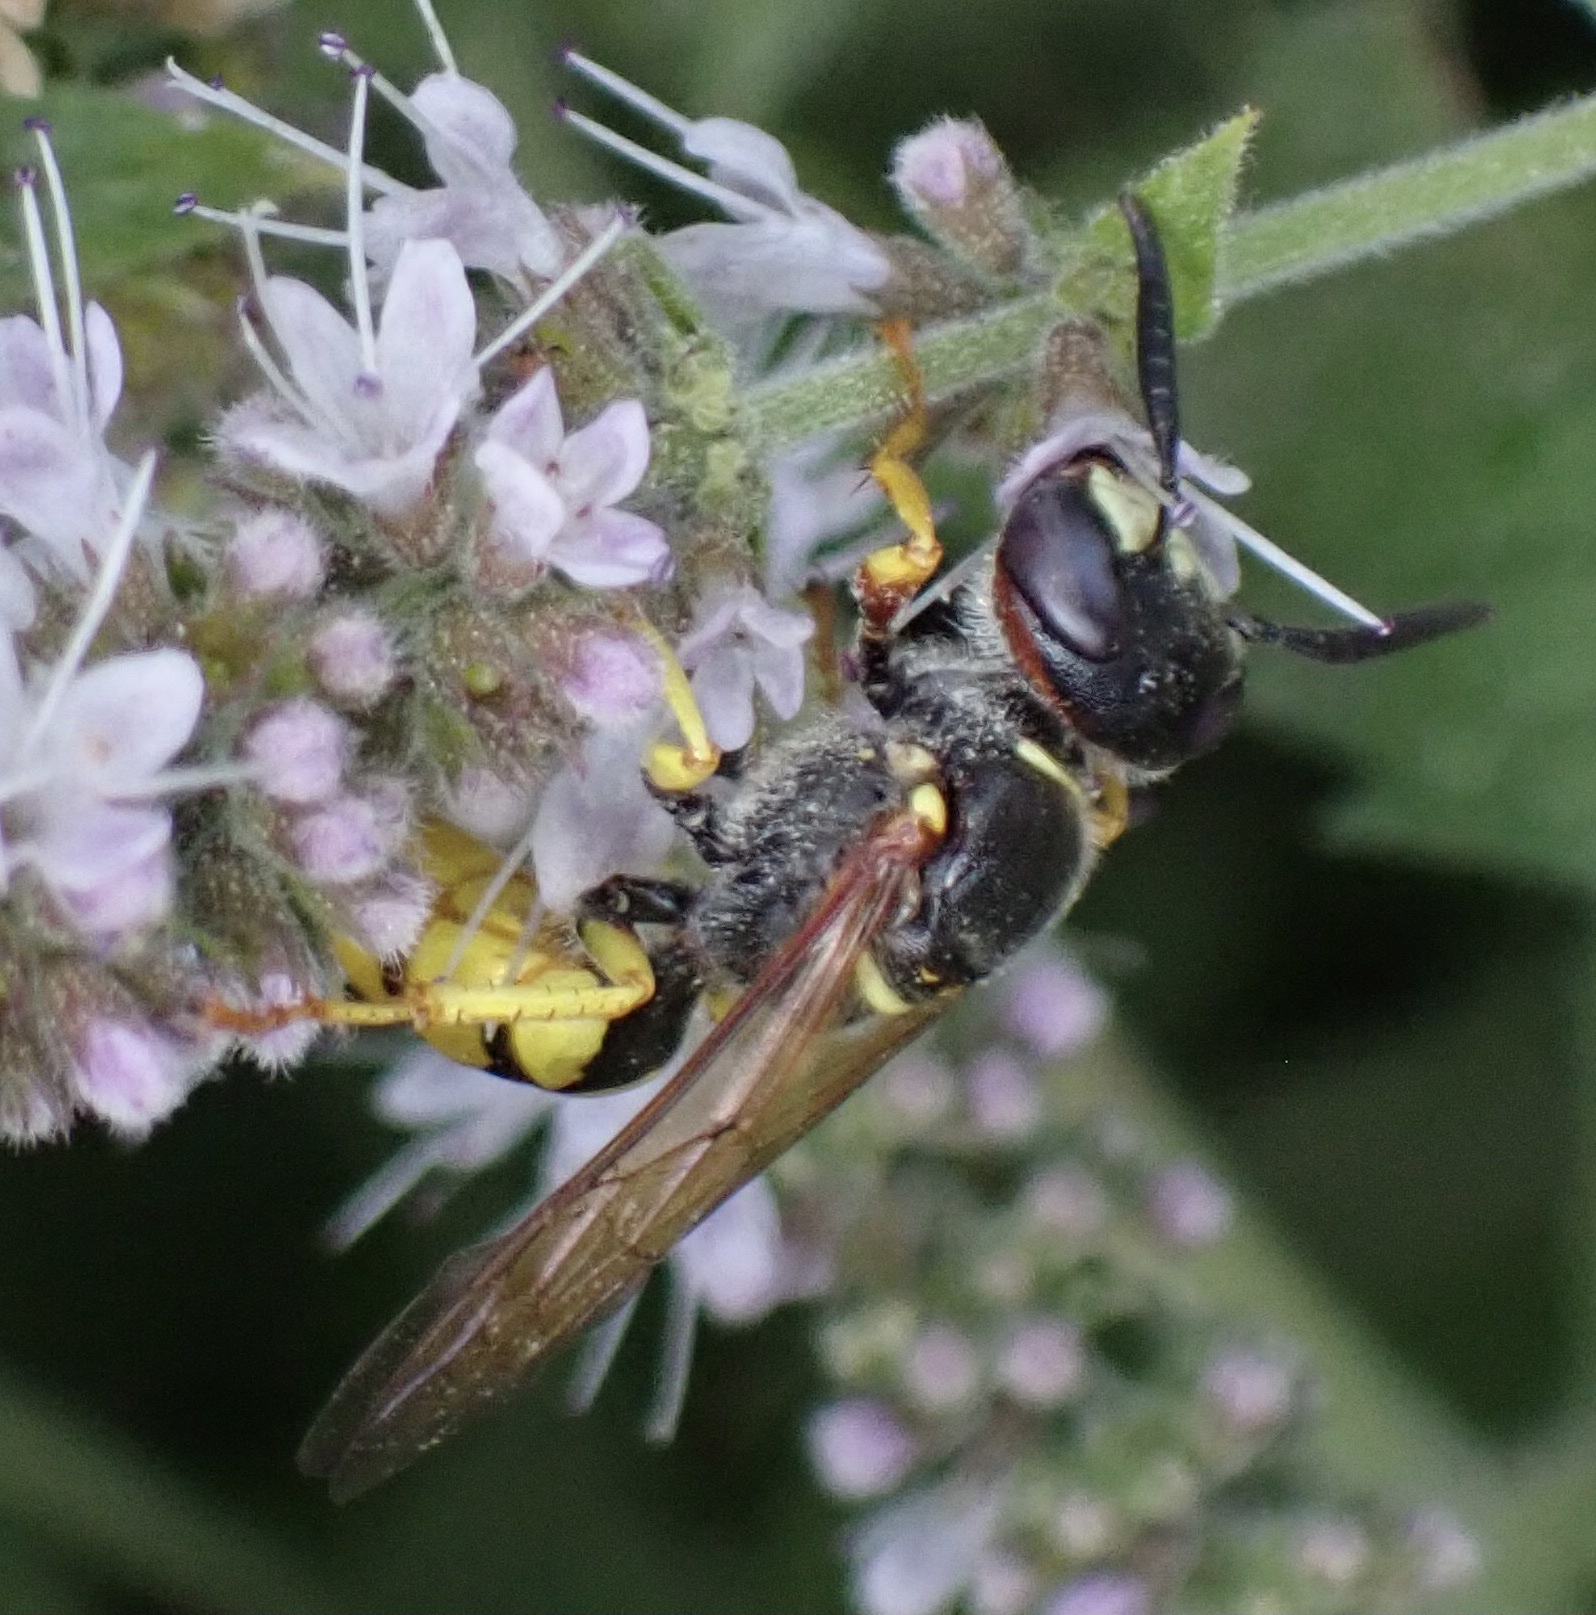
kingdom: Animalia
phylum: Arthropoda
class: Insecta
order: Hymenoptera
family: Crabronidae
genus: Philanthus
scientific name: Philanthus triangulum
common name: Bee wolf
